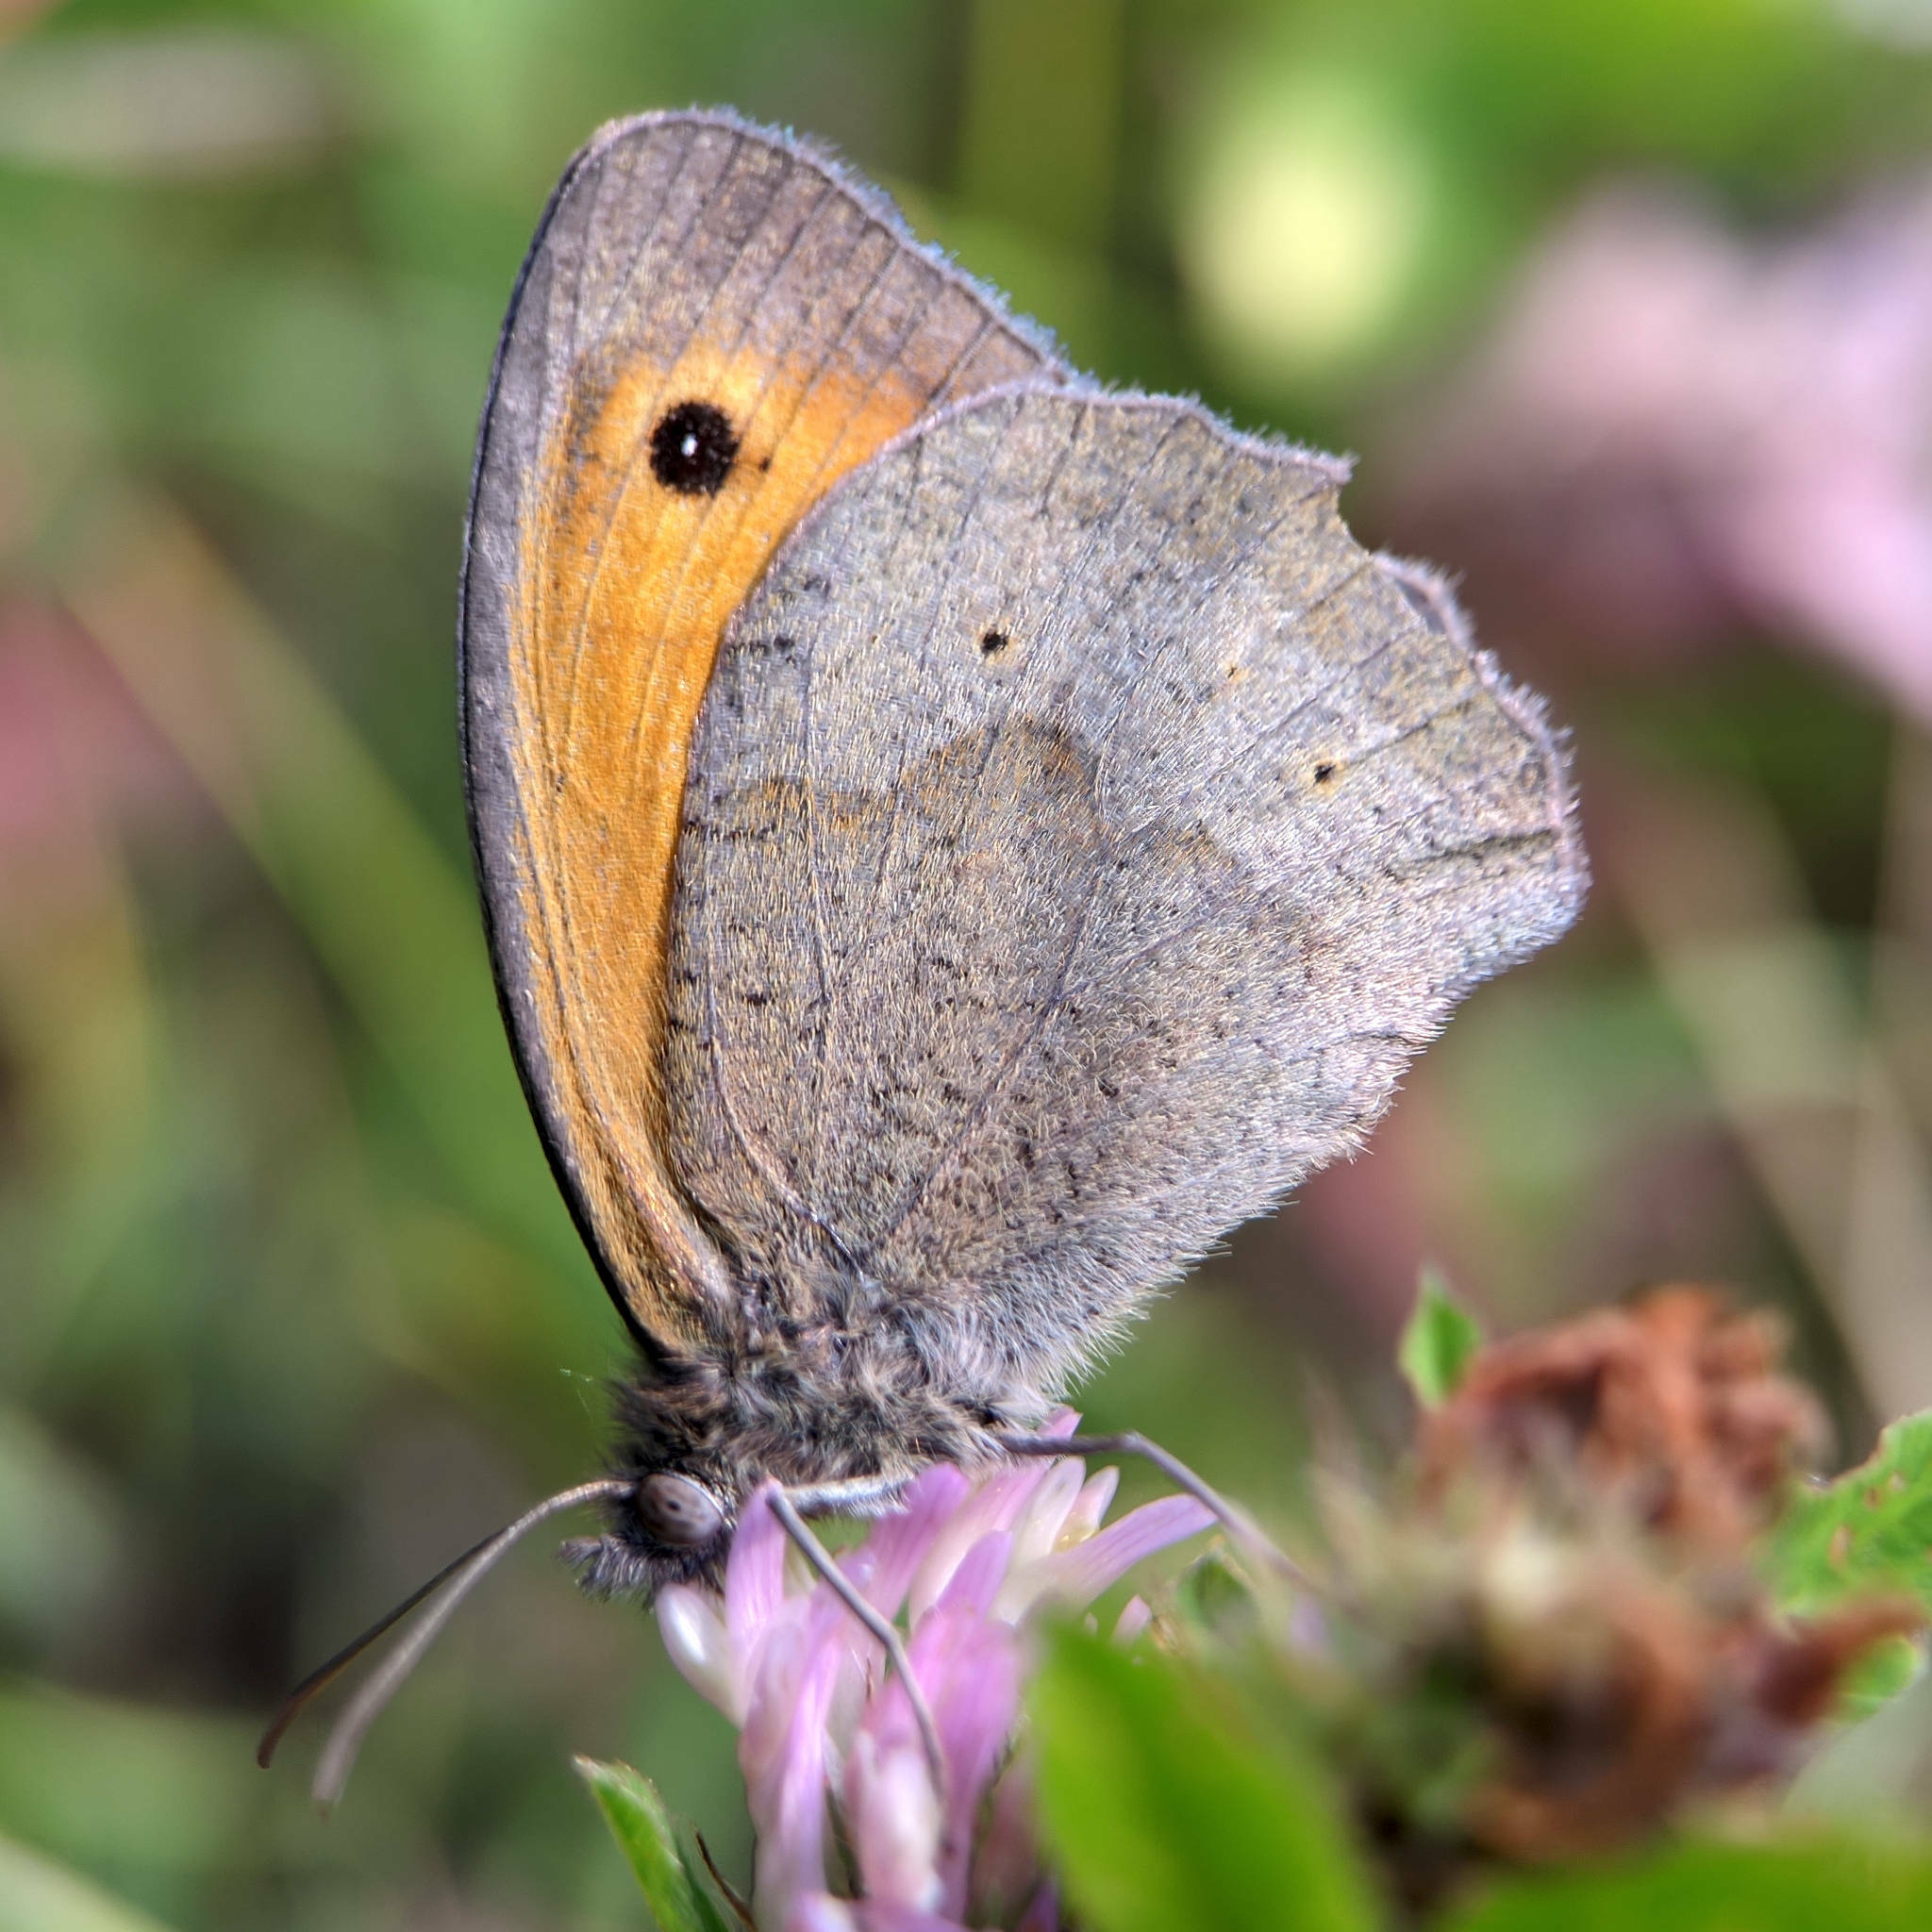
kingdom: Animalia
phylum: Arthropoda
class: Insecta
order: Lepidoptera
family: Nymphalidae
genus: Maniola
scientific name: Maniola jurtina
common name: Meadow brown
